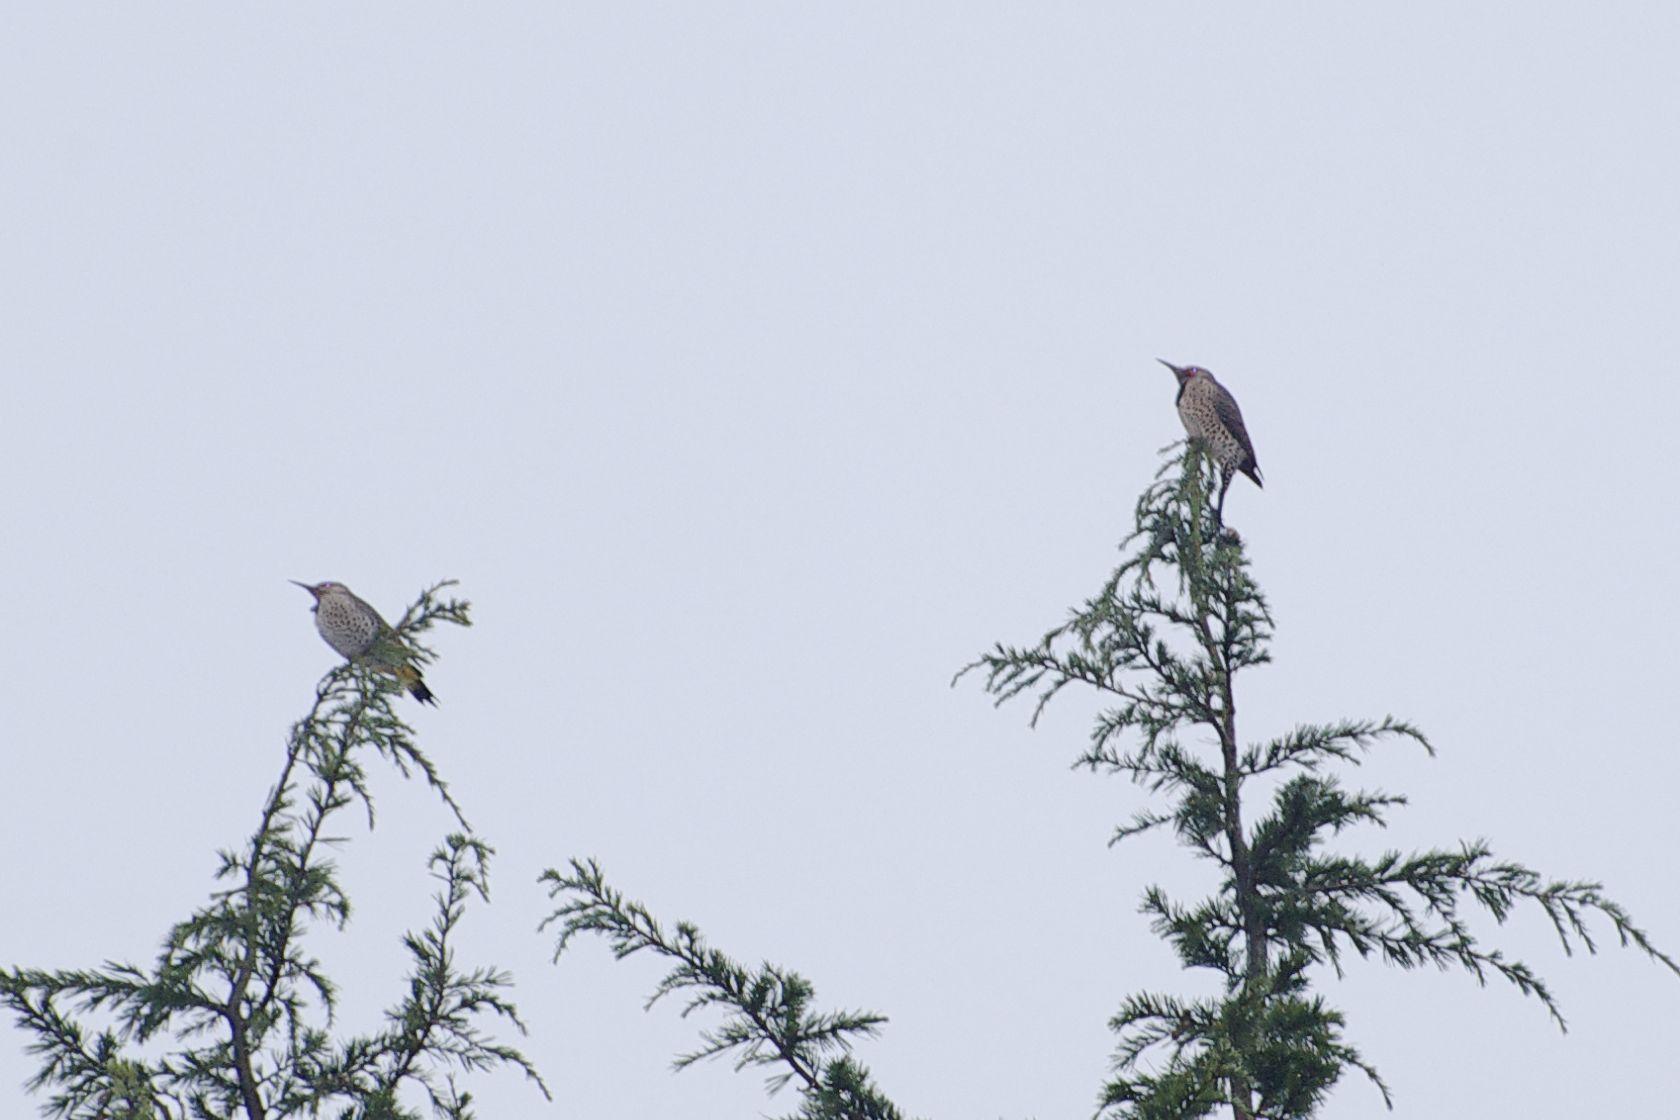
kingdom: Animalia
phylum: Chordata
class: Aves
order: Piciformes
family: Picidae
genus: Colaptes
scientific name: Colaptes auratus
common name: Northern flicker
